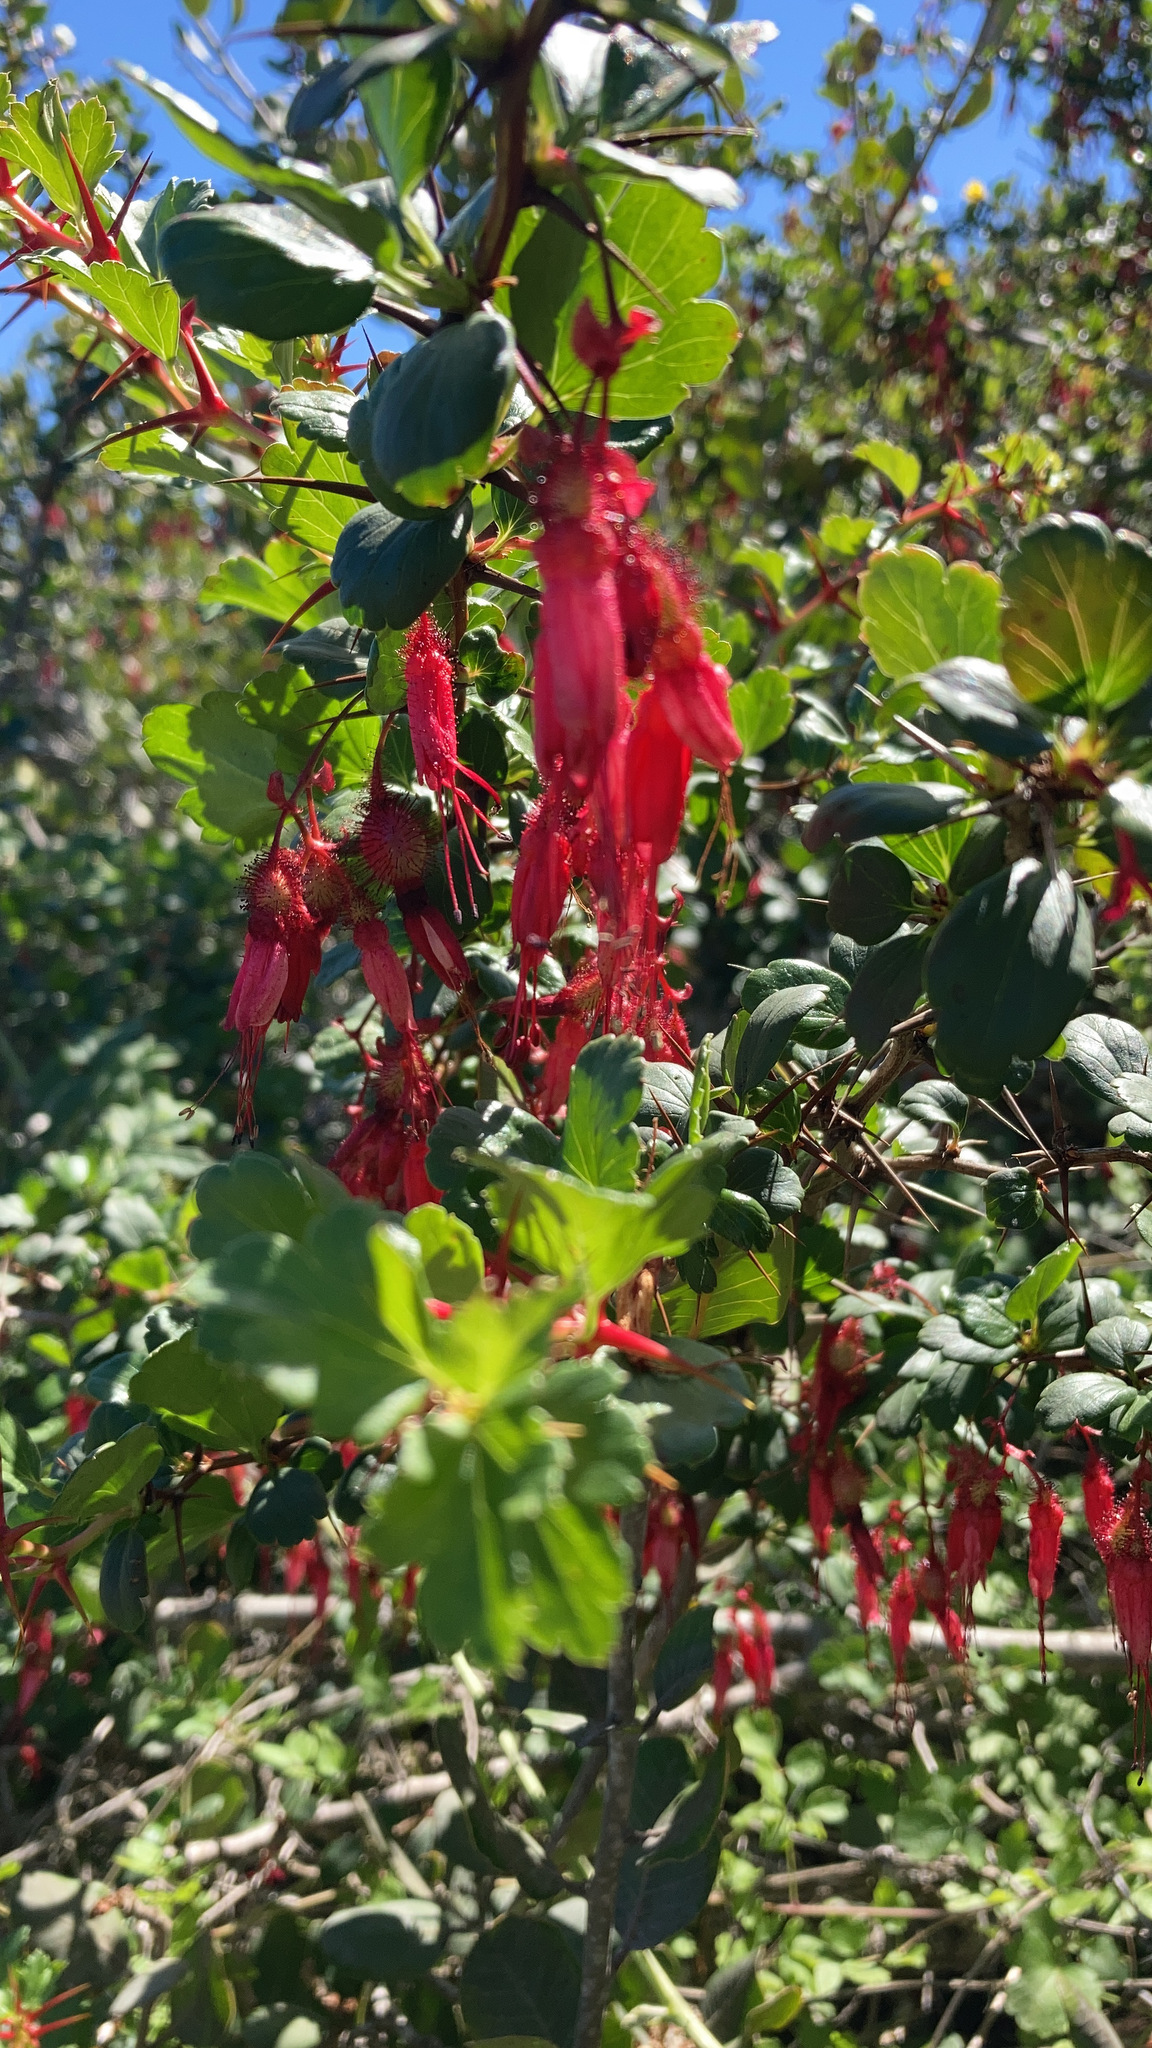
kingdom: Plantae
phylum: Tracheophyta
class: Magnoliopsida
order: Saxifragales
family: Grossulariaceae
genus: Ribes
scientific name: Ribes speciosum
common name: Fuchsia-flower gooseberry
